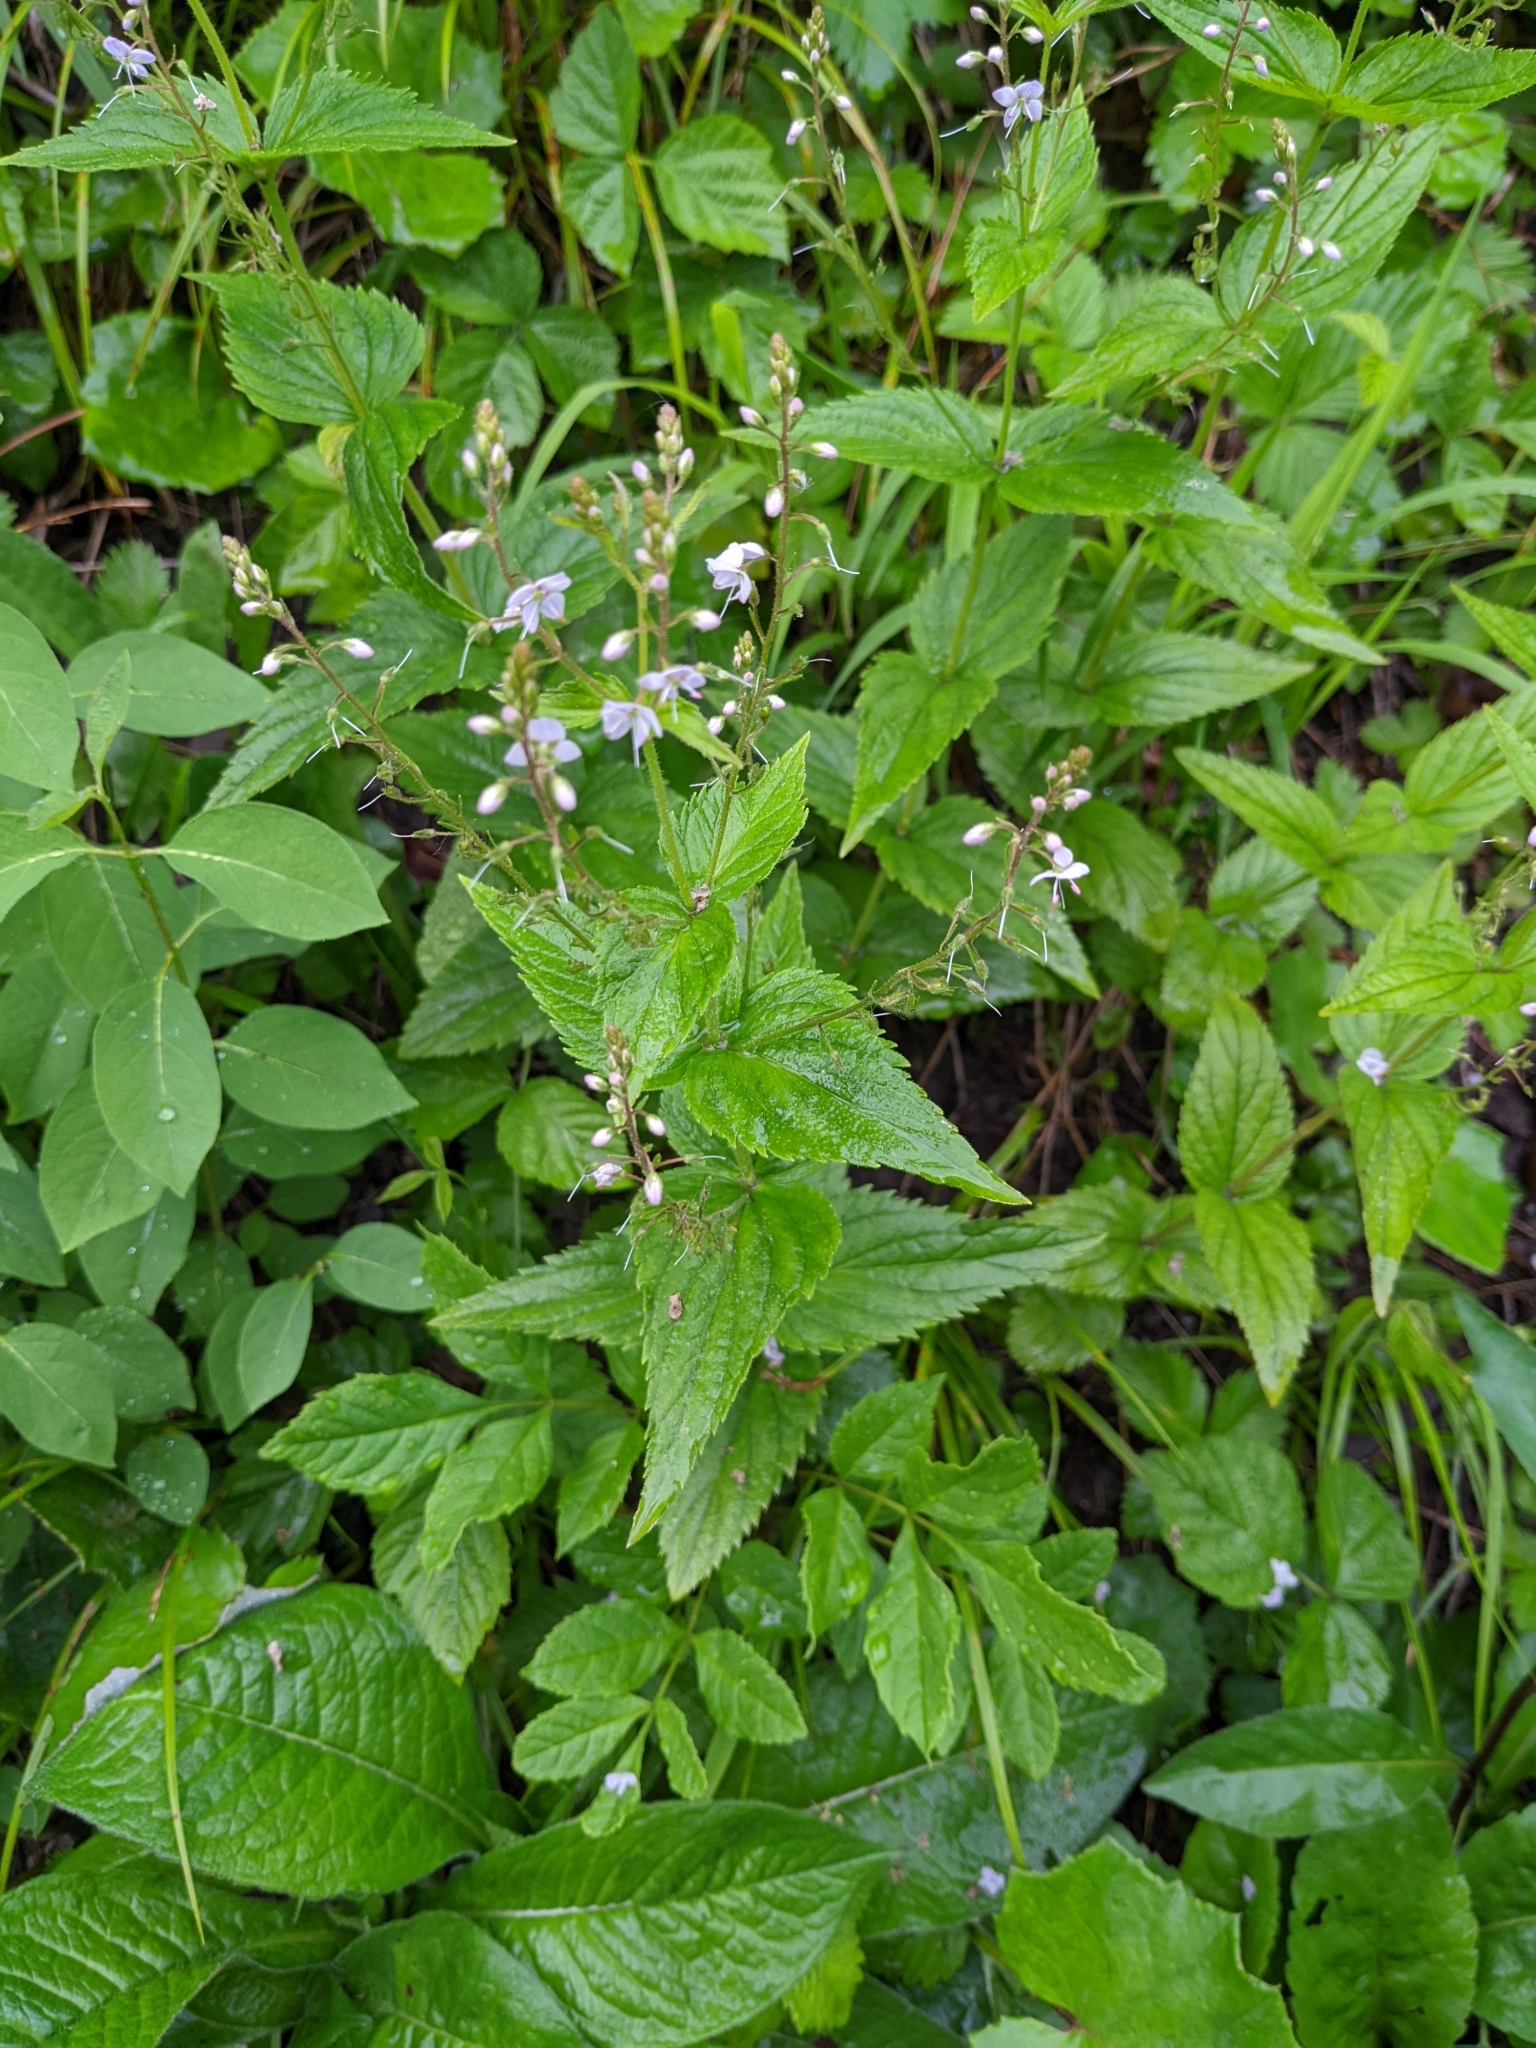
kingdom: Plantae
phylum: Tracheophyta
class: Magnoliopsida
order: Lamiales
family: Plantaginaceae
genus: Veronica
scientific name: Veronica urticifolia
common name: Nettle-leaf speedwell
